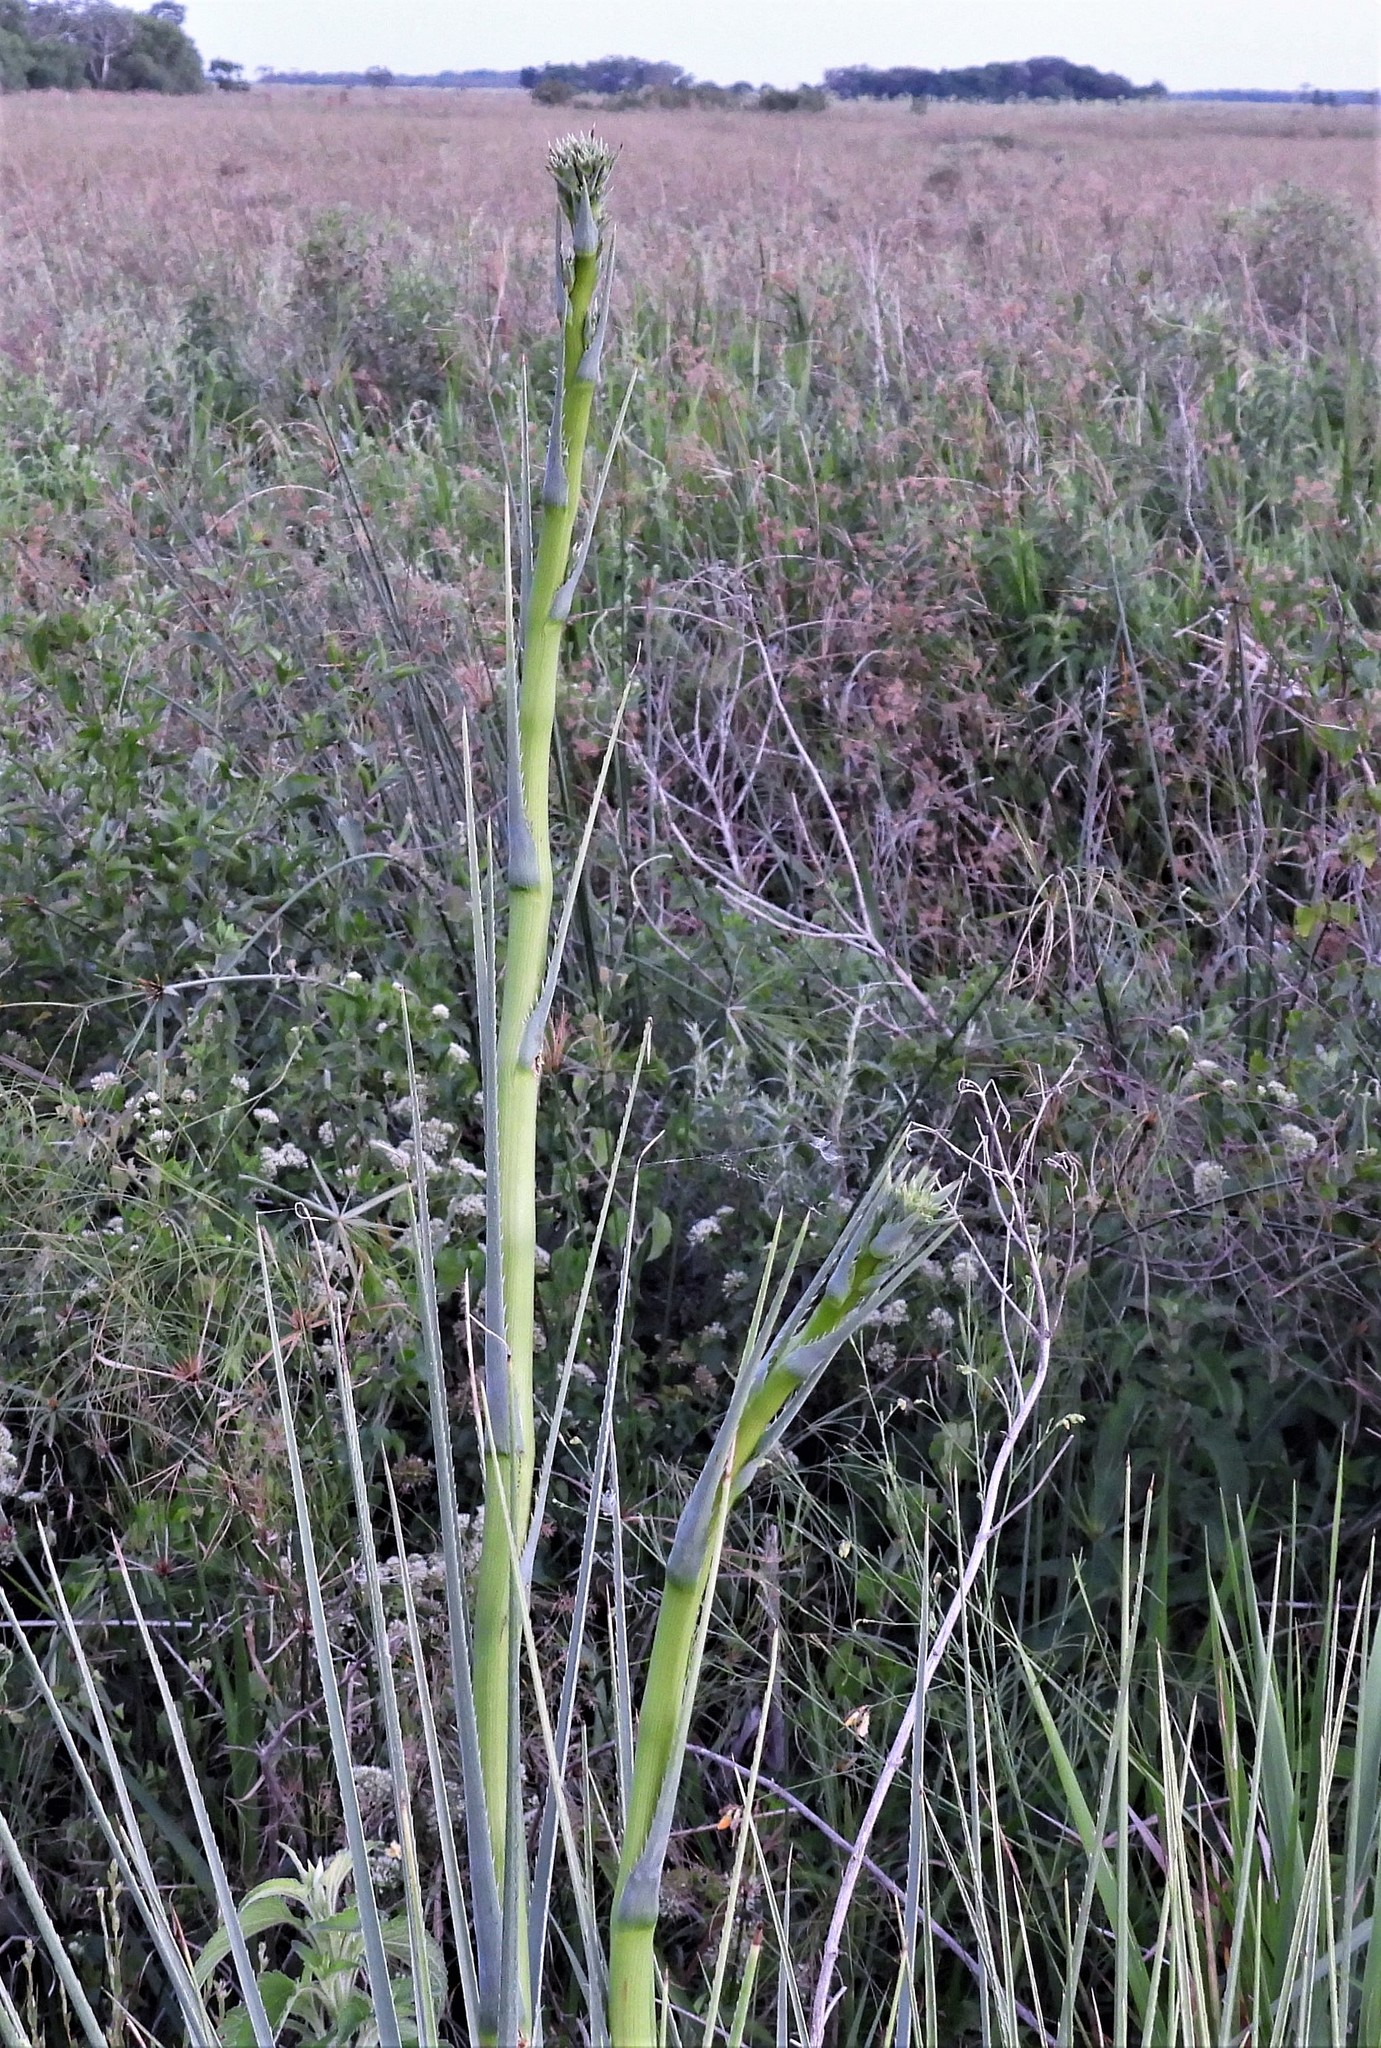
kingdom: Plantae
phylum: Tracheophyta
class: Magnoliopsida
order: Apiales
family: Apiaceae
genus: Eryngium
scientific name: Eryngium pandanifolium
